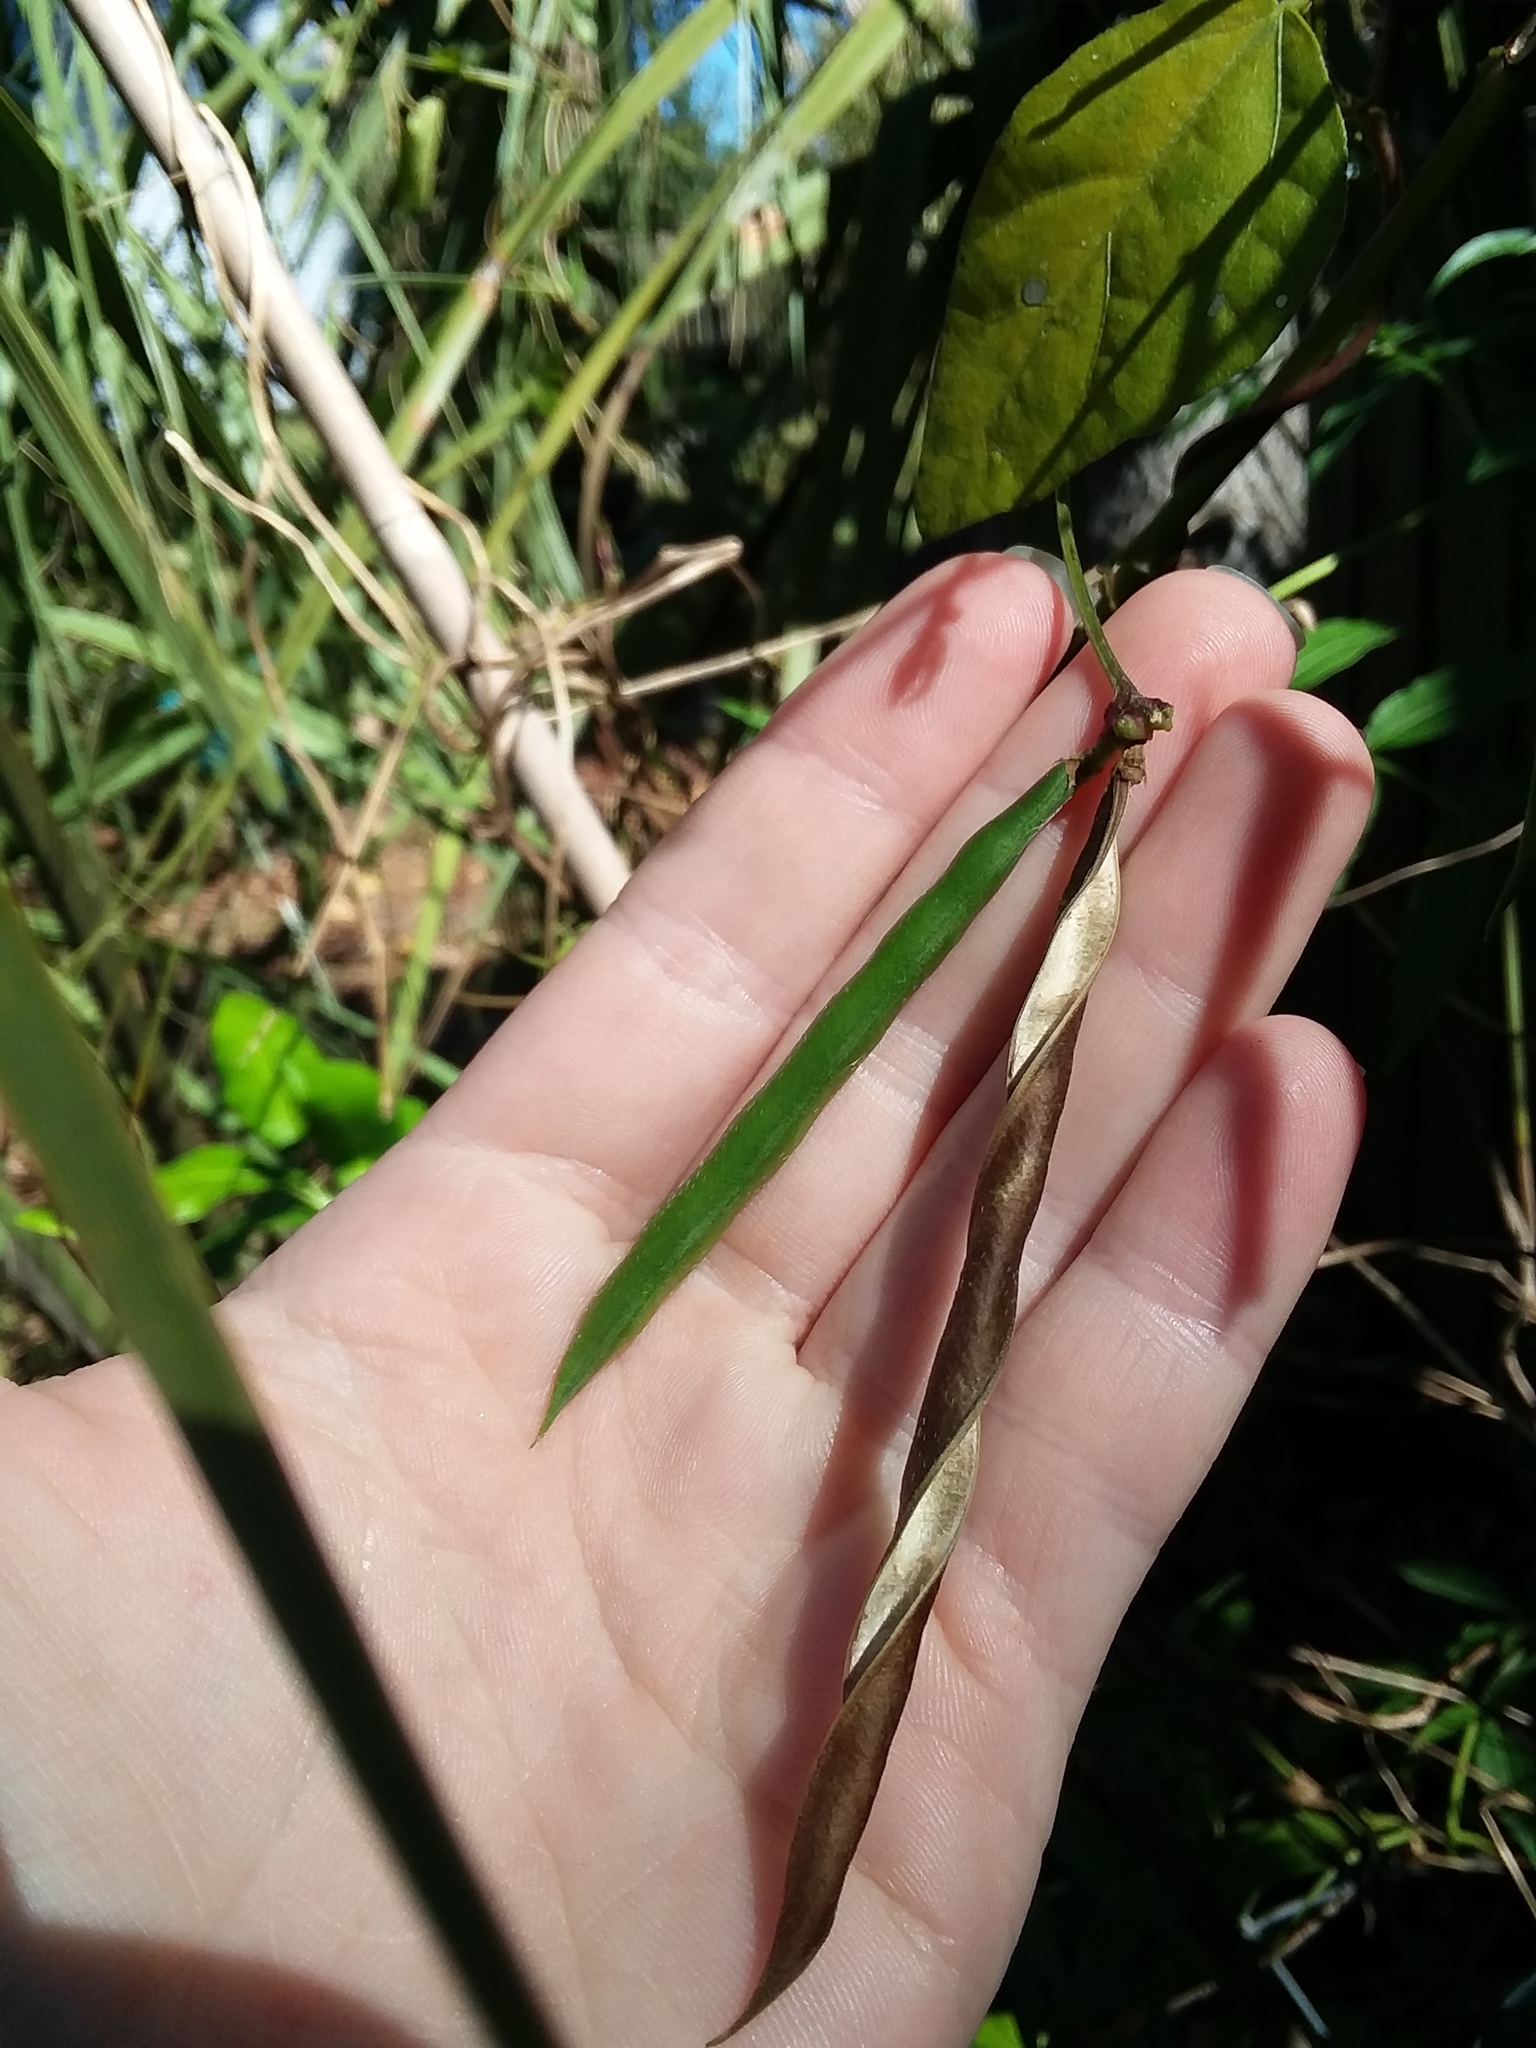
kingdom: Plantae
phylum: Tracheophyta
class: Magnoliopsida
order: Fabales
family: Fabaceae
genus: Strophostyles
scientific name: Strophostyles helvola
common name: Trailing wild bean
